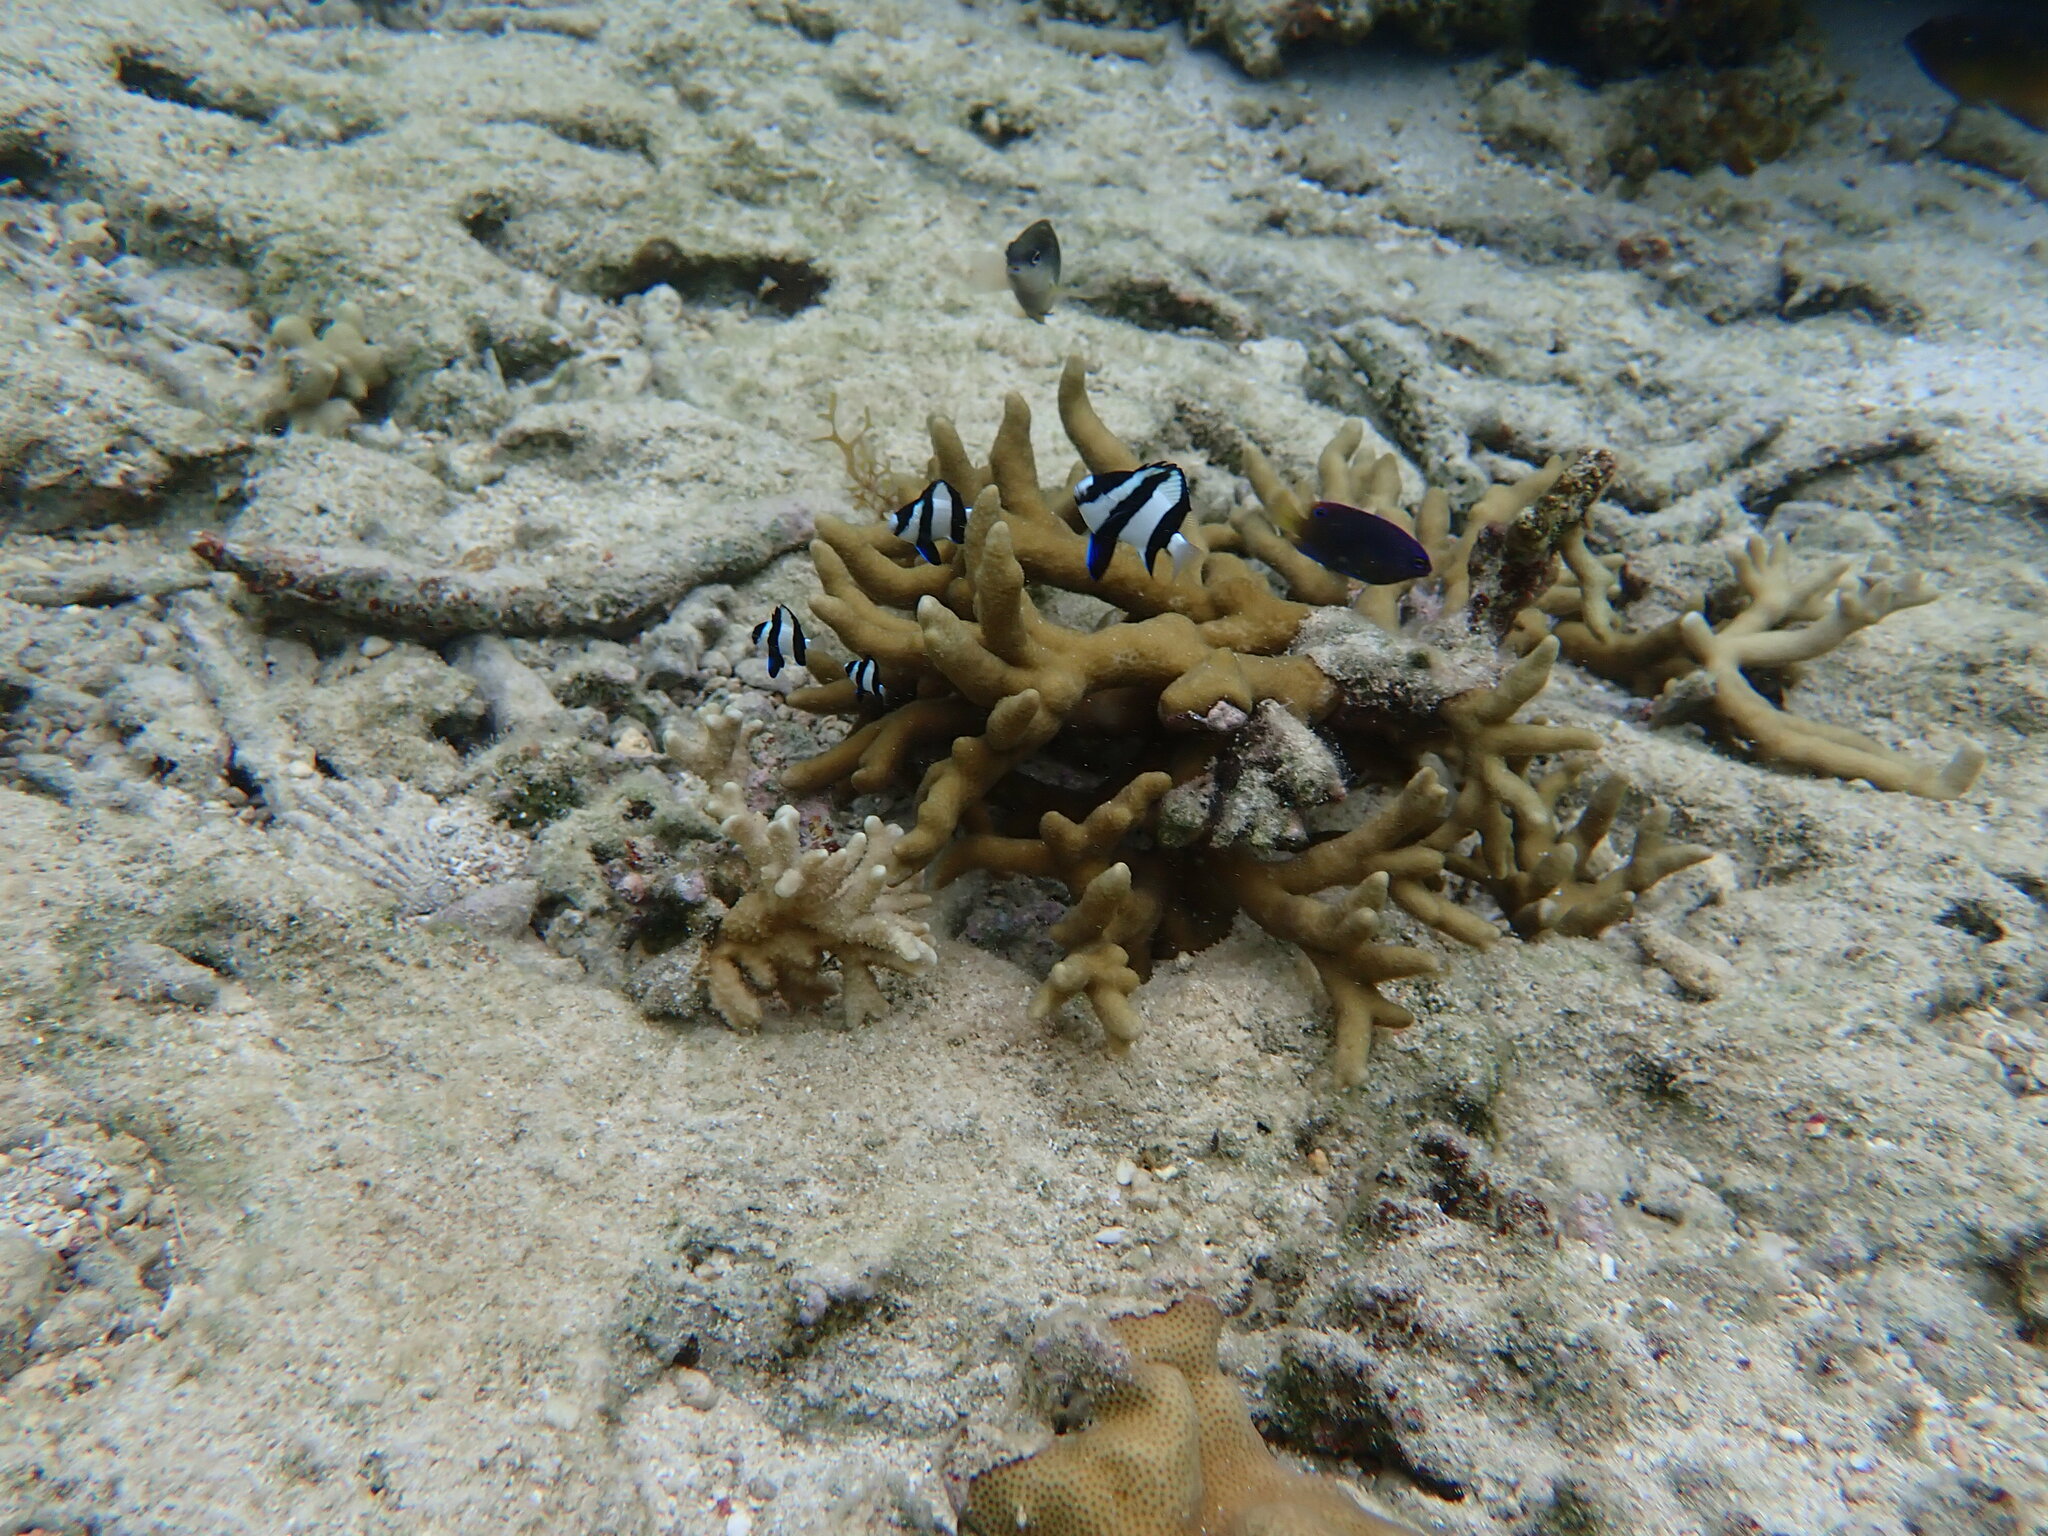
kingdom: Animalia
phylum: Chordata
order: Perciformes
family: Pomacentridae
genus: Dascyllus
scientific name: Dascyllus aruanus
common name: Humbug dascyllus
